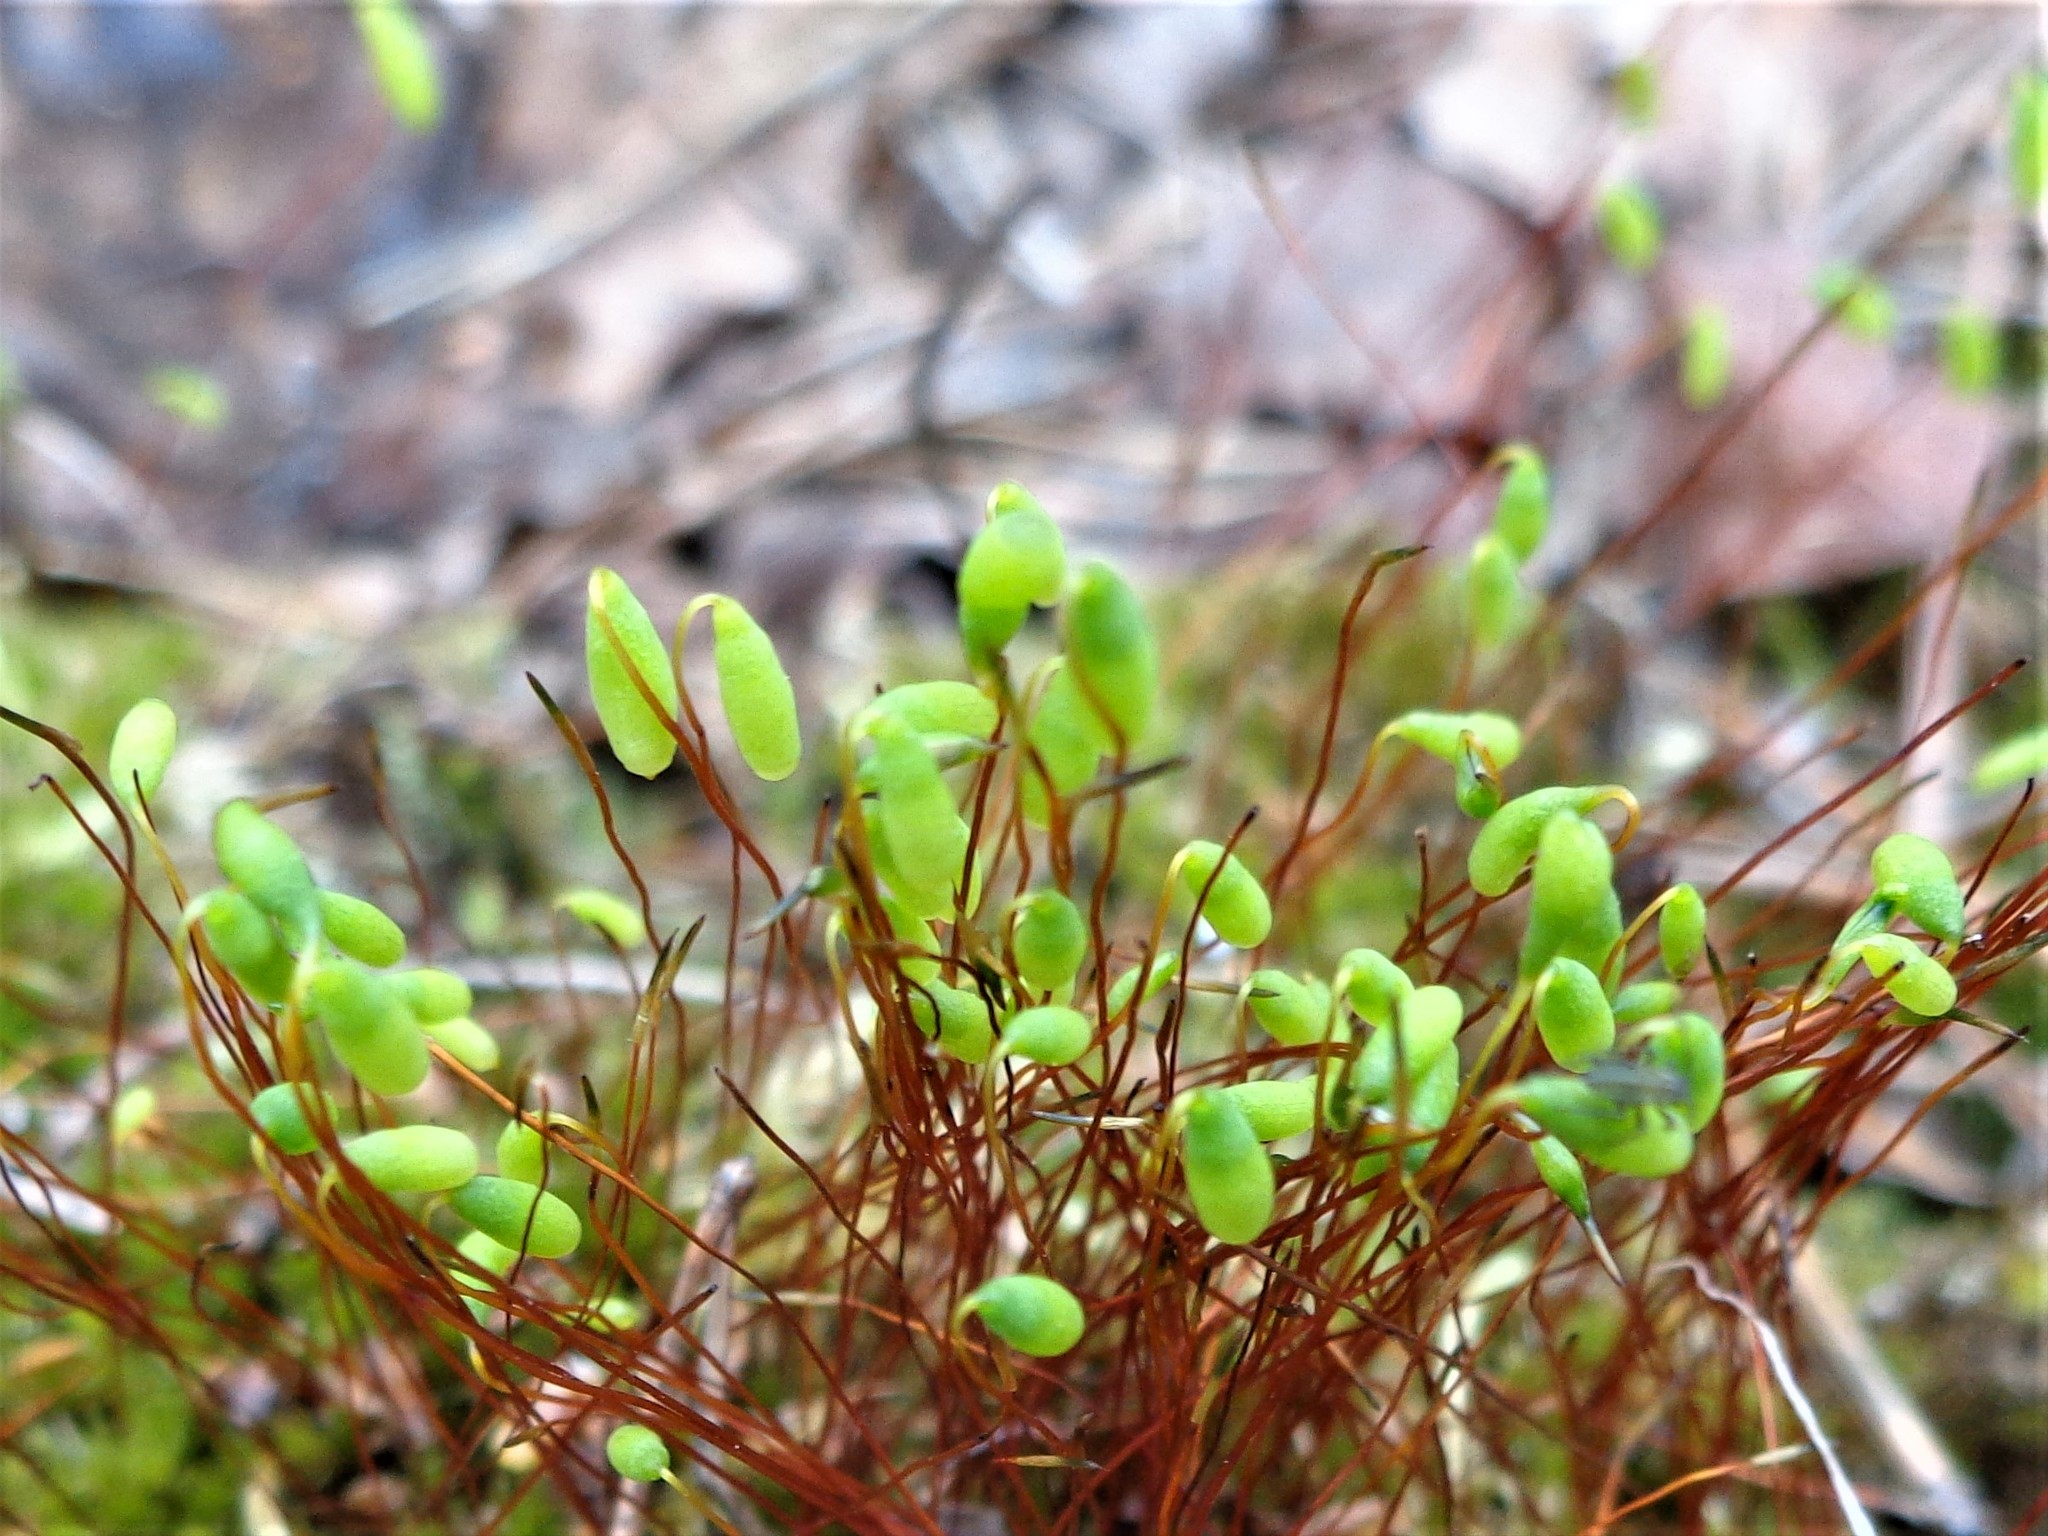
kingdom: Plantae
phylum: Bryophyta
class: Bryopsida
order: Bryales
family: Mniaceae
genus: Pohlia
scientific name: Pohlia nutans
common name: Nodding thread-moss
